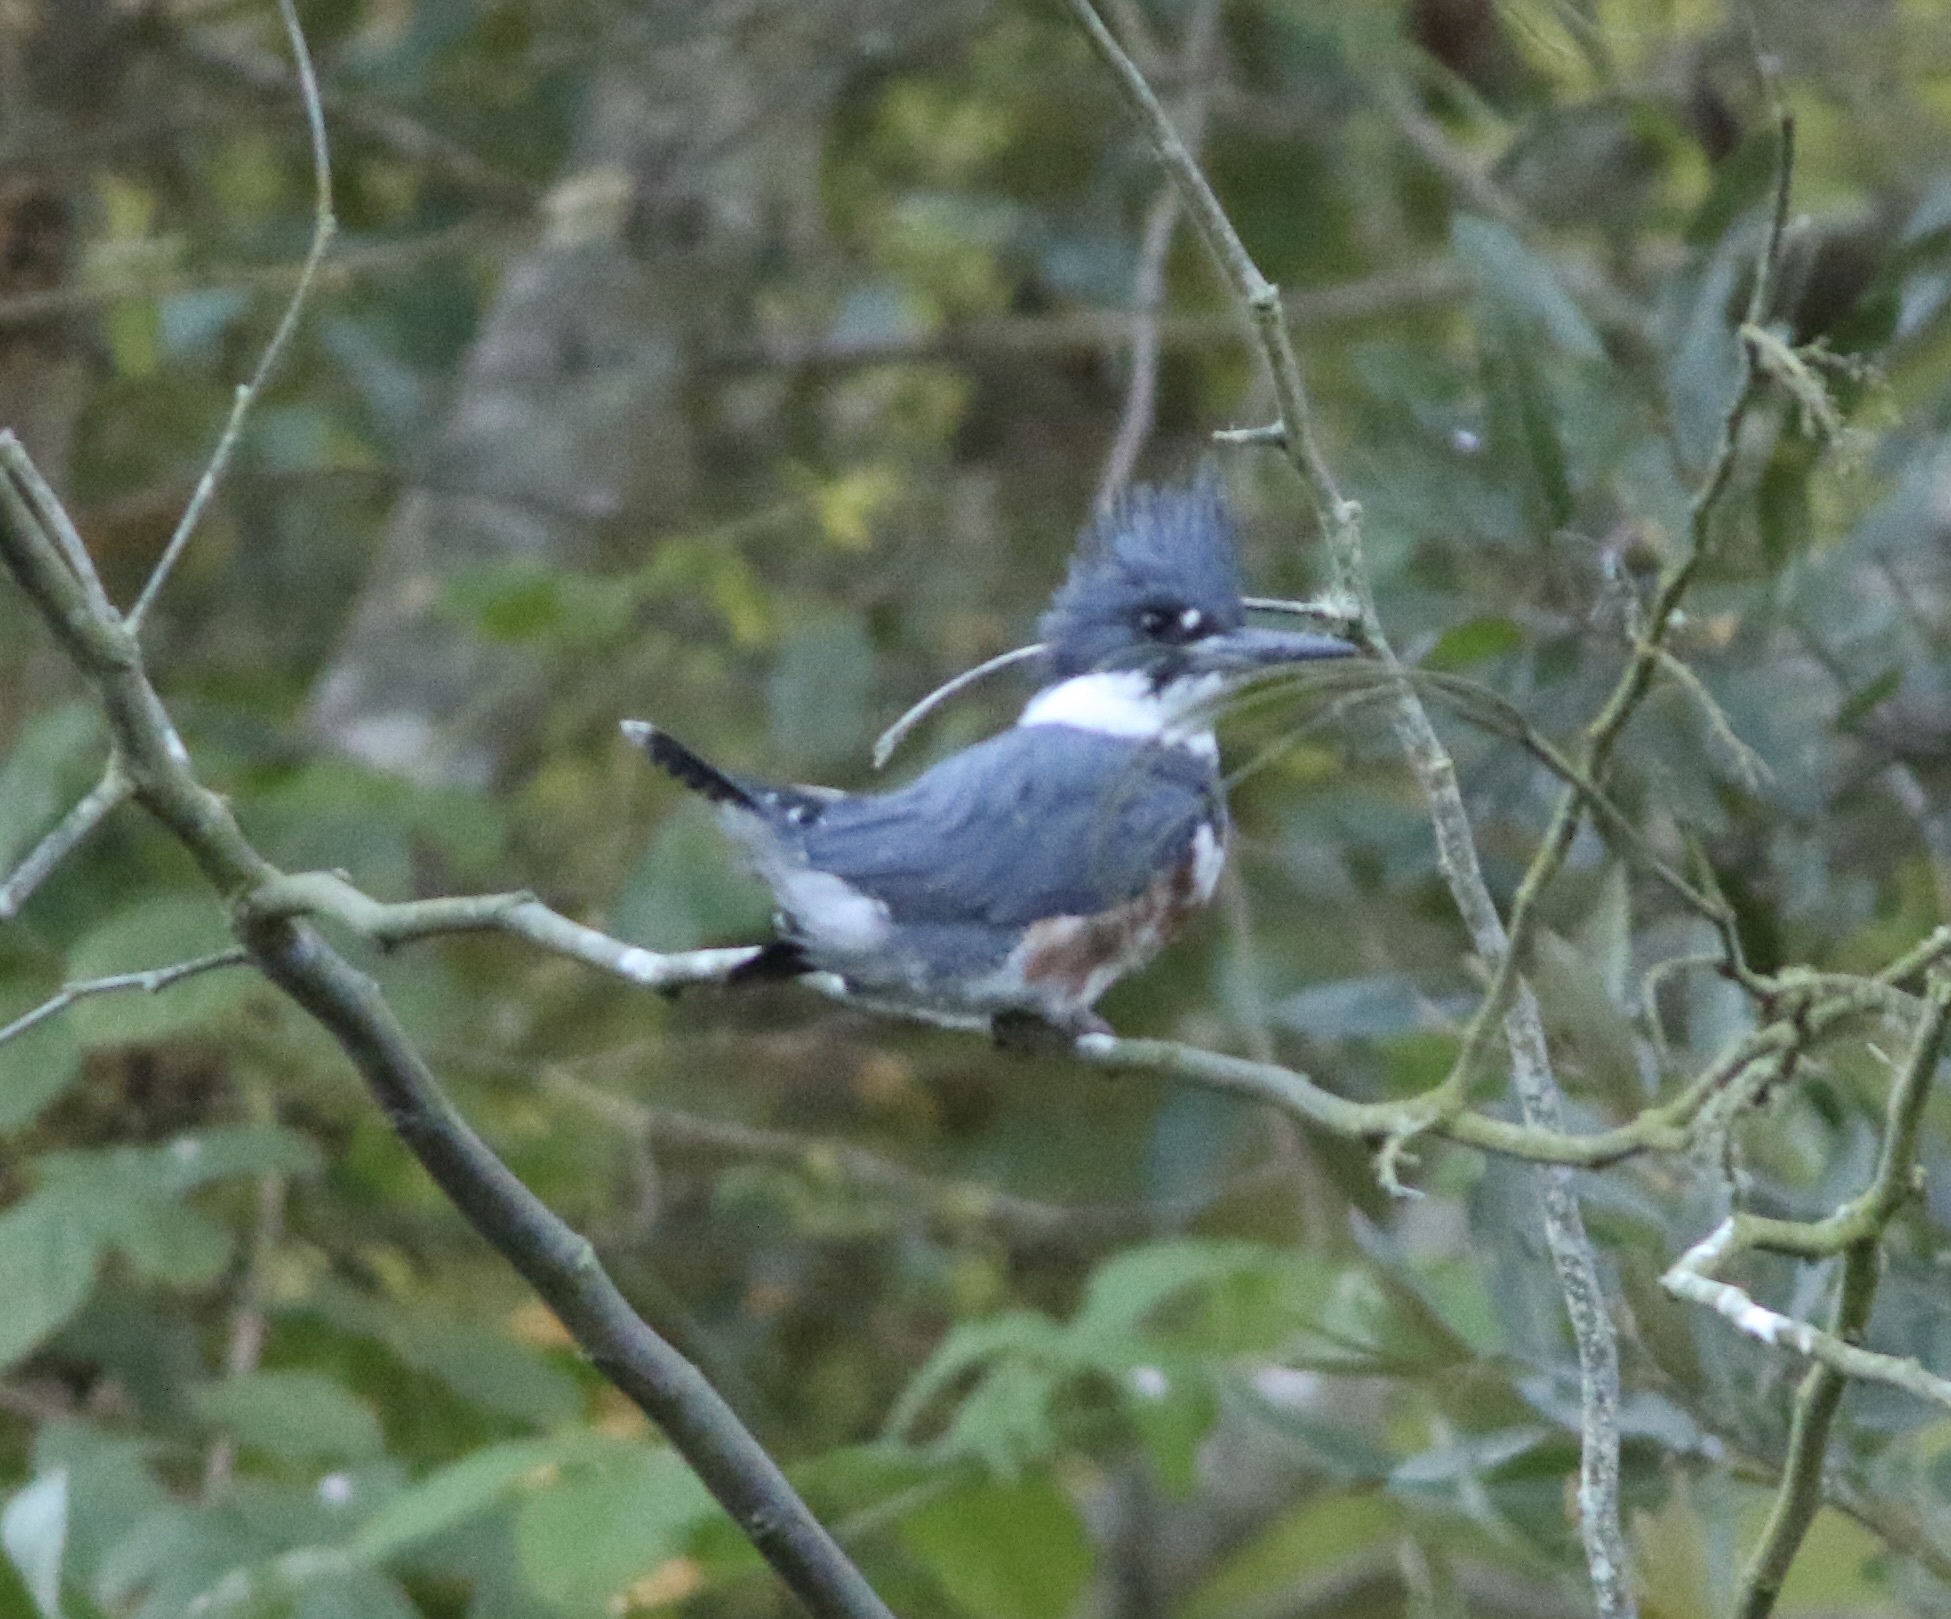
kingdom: Animalia
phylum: Chordata
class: Aves
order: Coraciiformes
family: Alcedinidae
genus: Megaceryle
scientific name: Megaceryle alcyon
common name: Belted kingfisher
